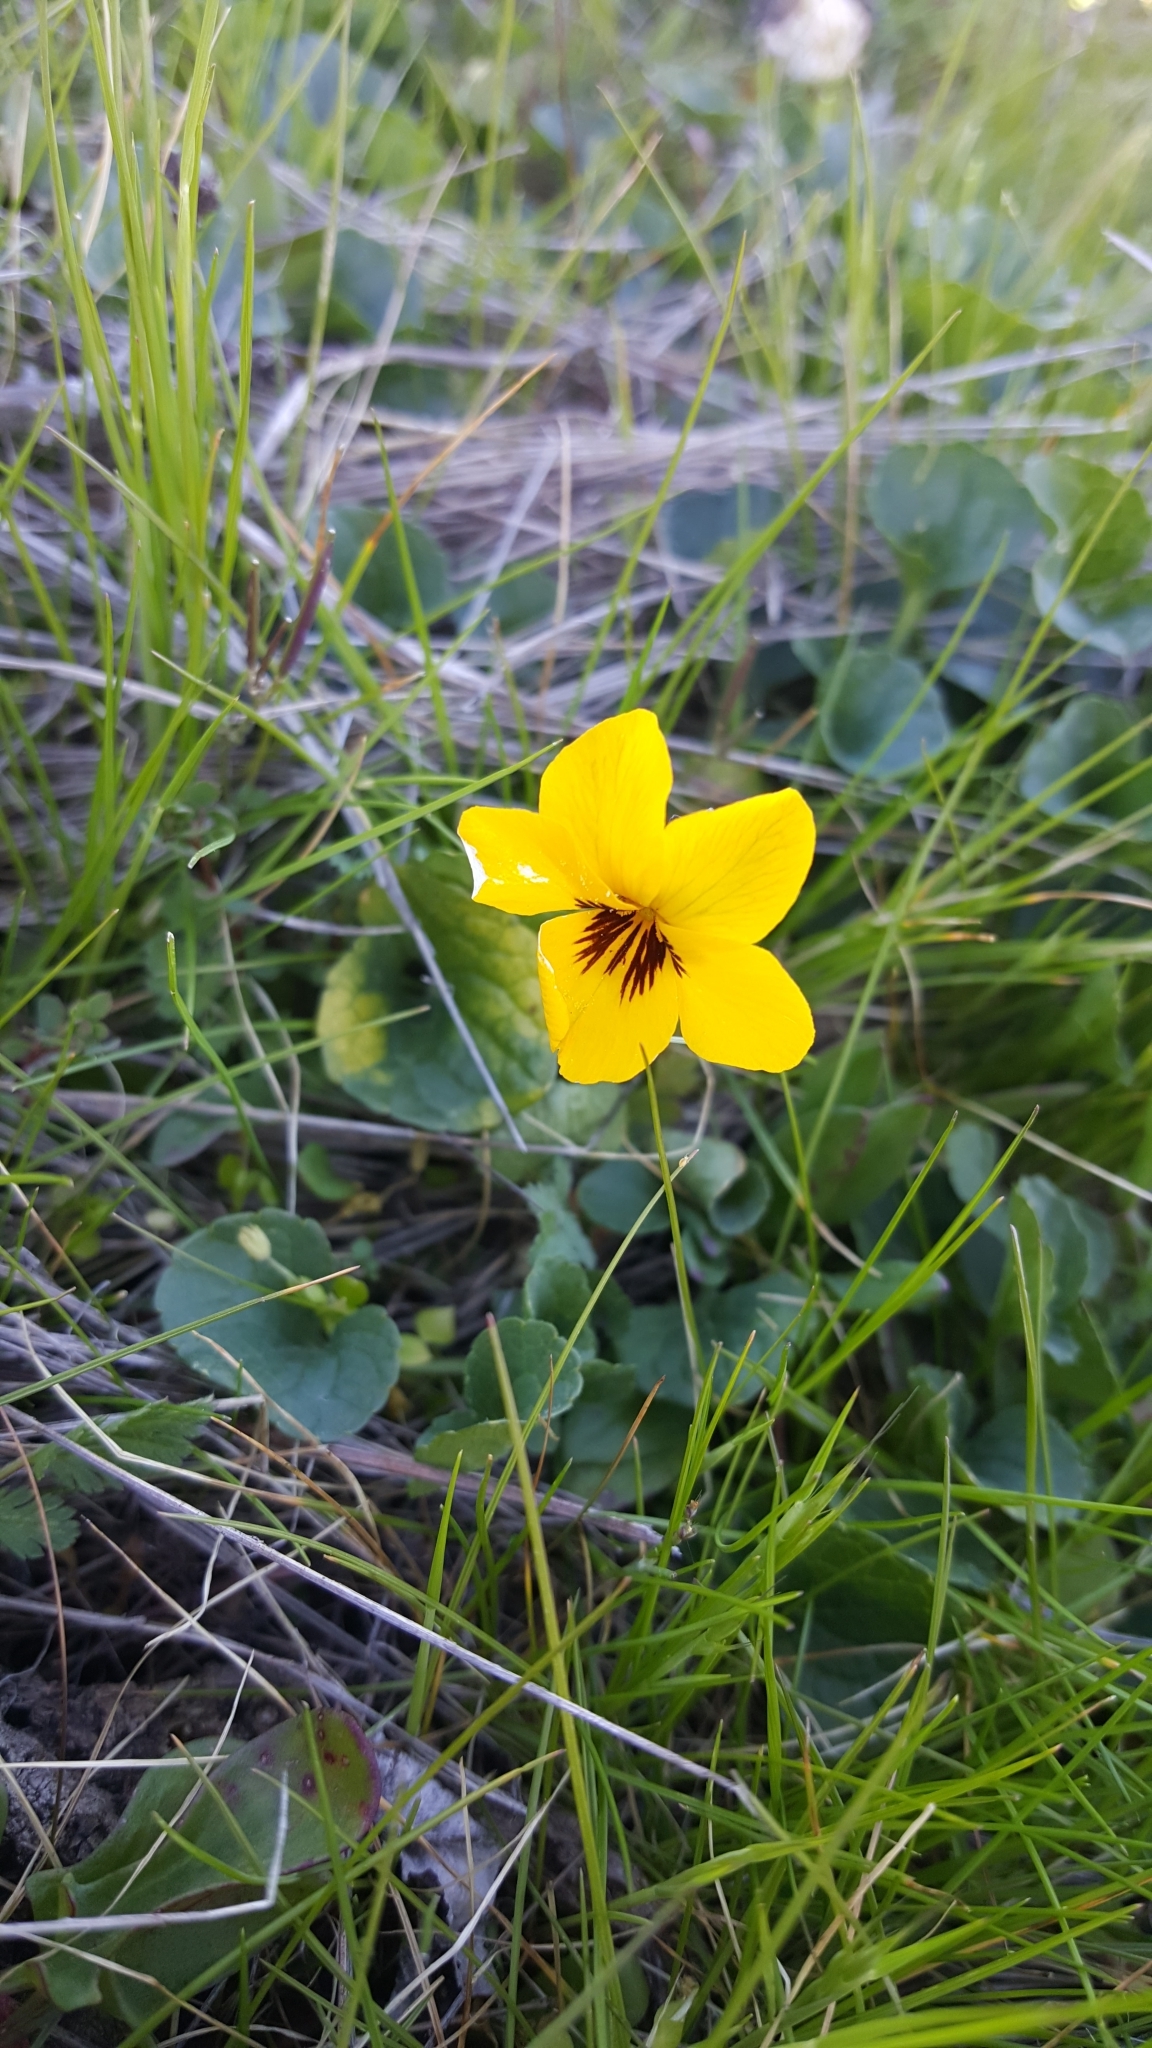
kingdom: Plantae
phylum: Tracheophyta
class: Magnoliopsida
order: Malpighiales
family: Violaceae
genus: Viola
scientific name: Viola pedunculata
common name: California golden violet
